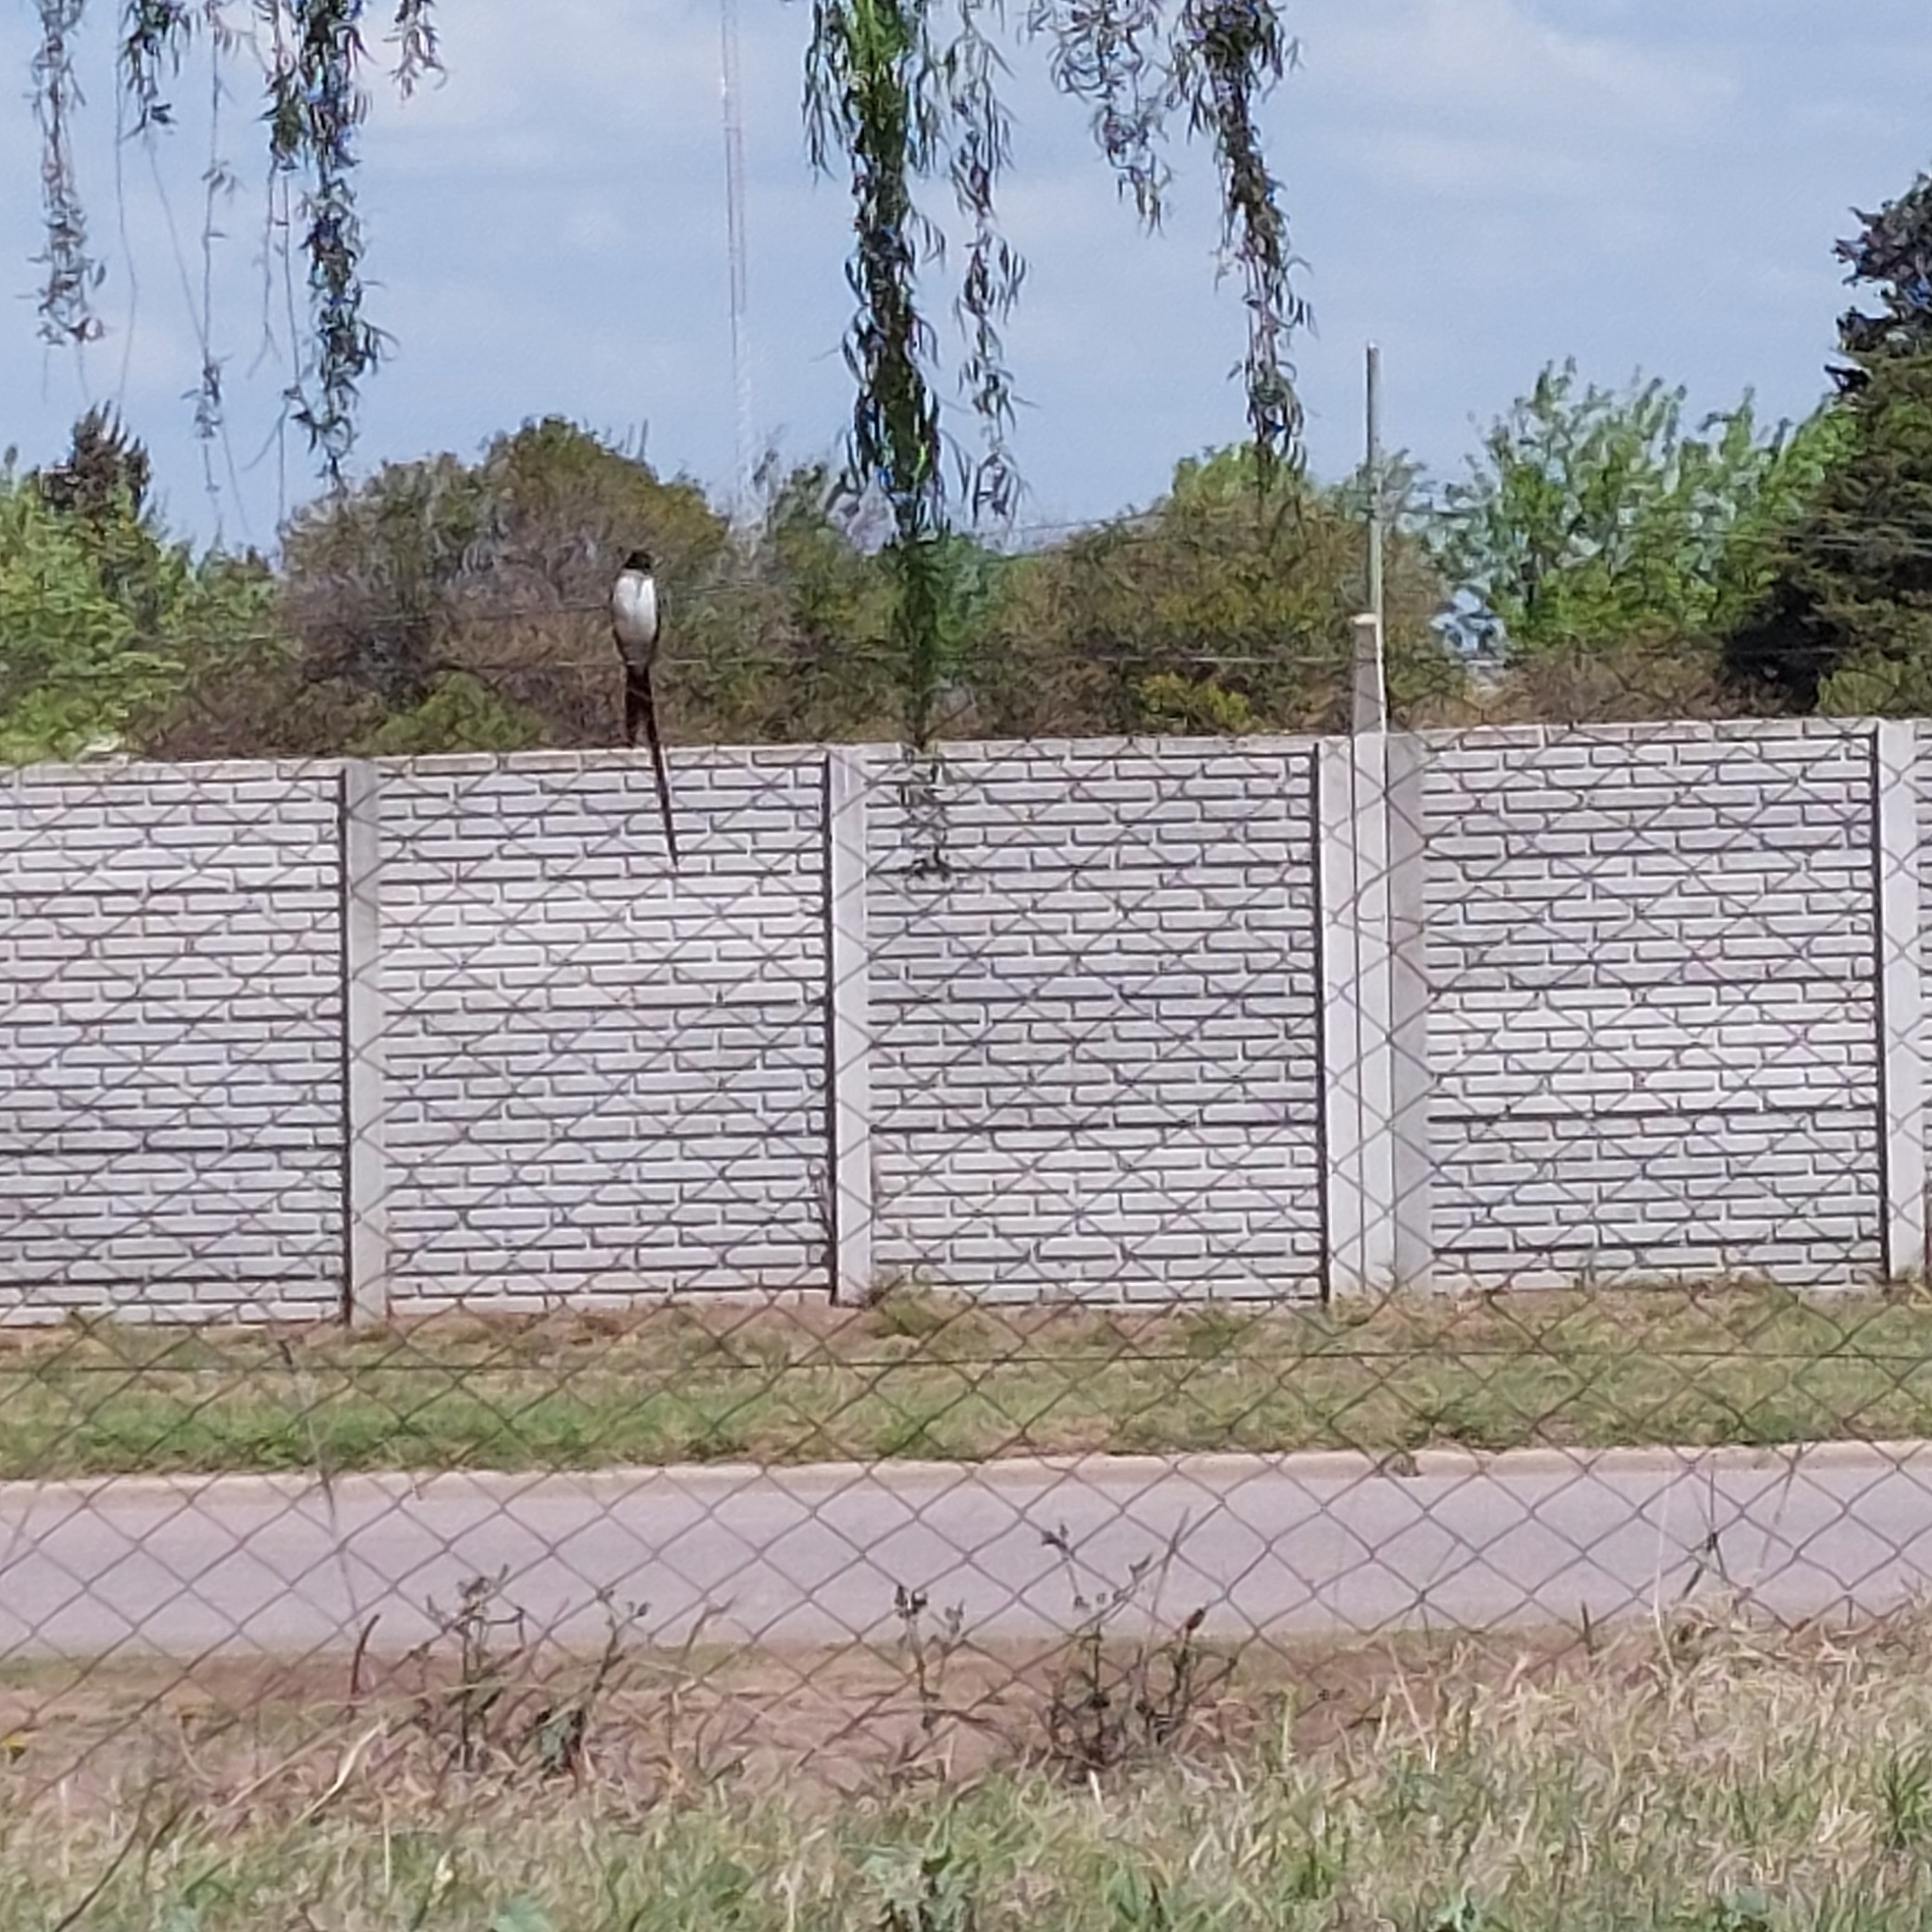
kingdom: Animalia
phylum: Chordata
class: Aves
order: Passeriformes
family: Tyrannidae
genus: Tyrannus
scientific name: Tyrannus savana
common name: Fork-tailed flycatcher
